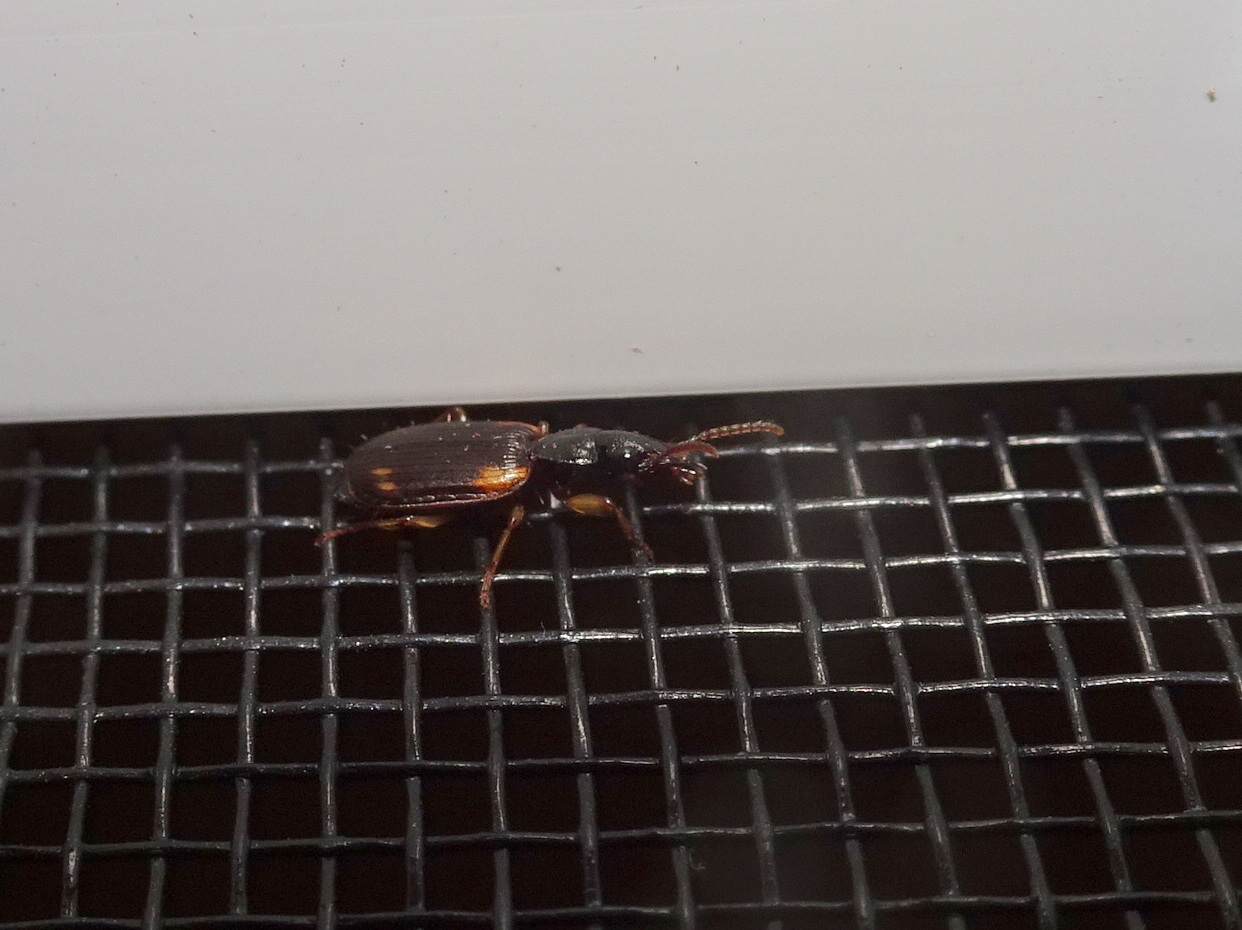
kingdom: Animalia
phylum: Arthropoda
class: Insecta
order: Coleoptera
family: Carabidae
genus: Apenes
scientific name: Apenes sinuata
